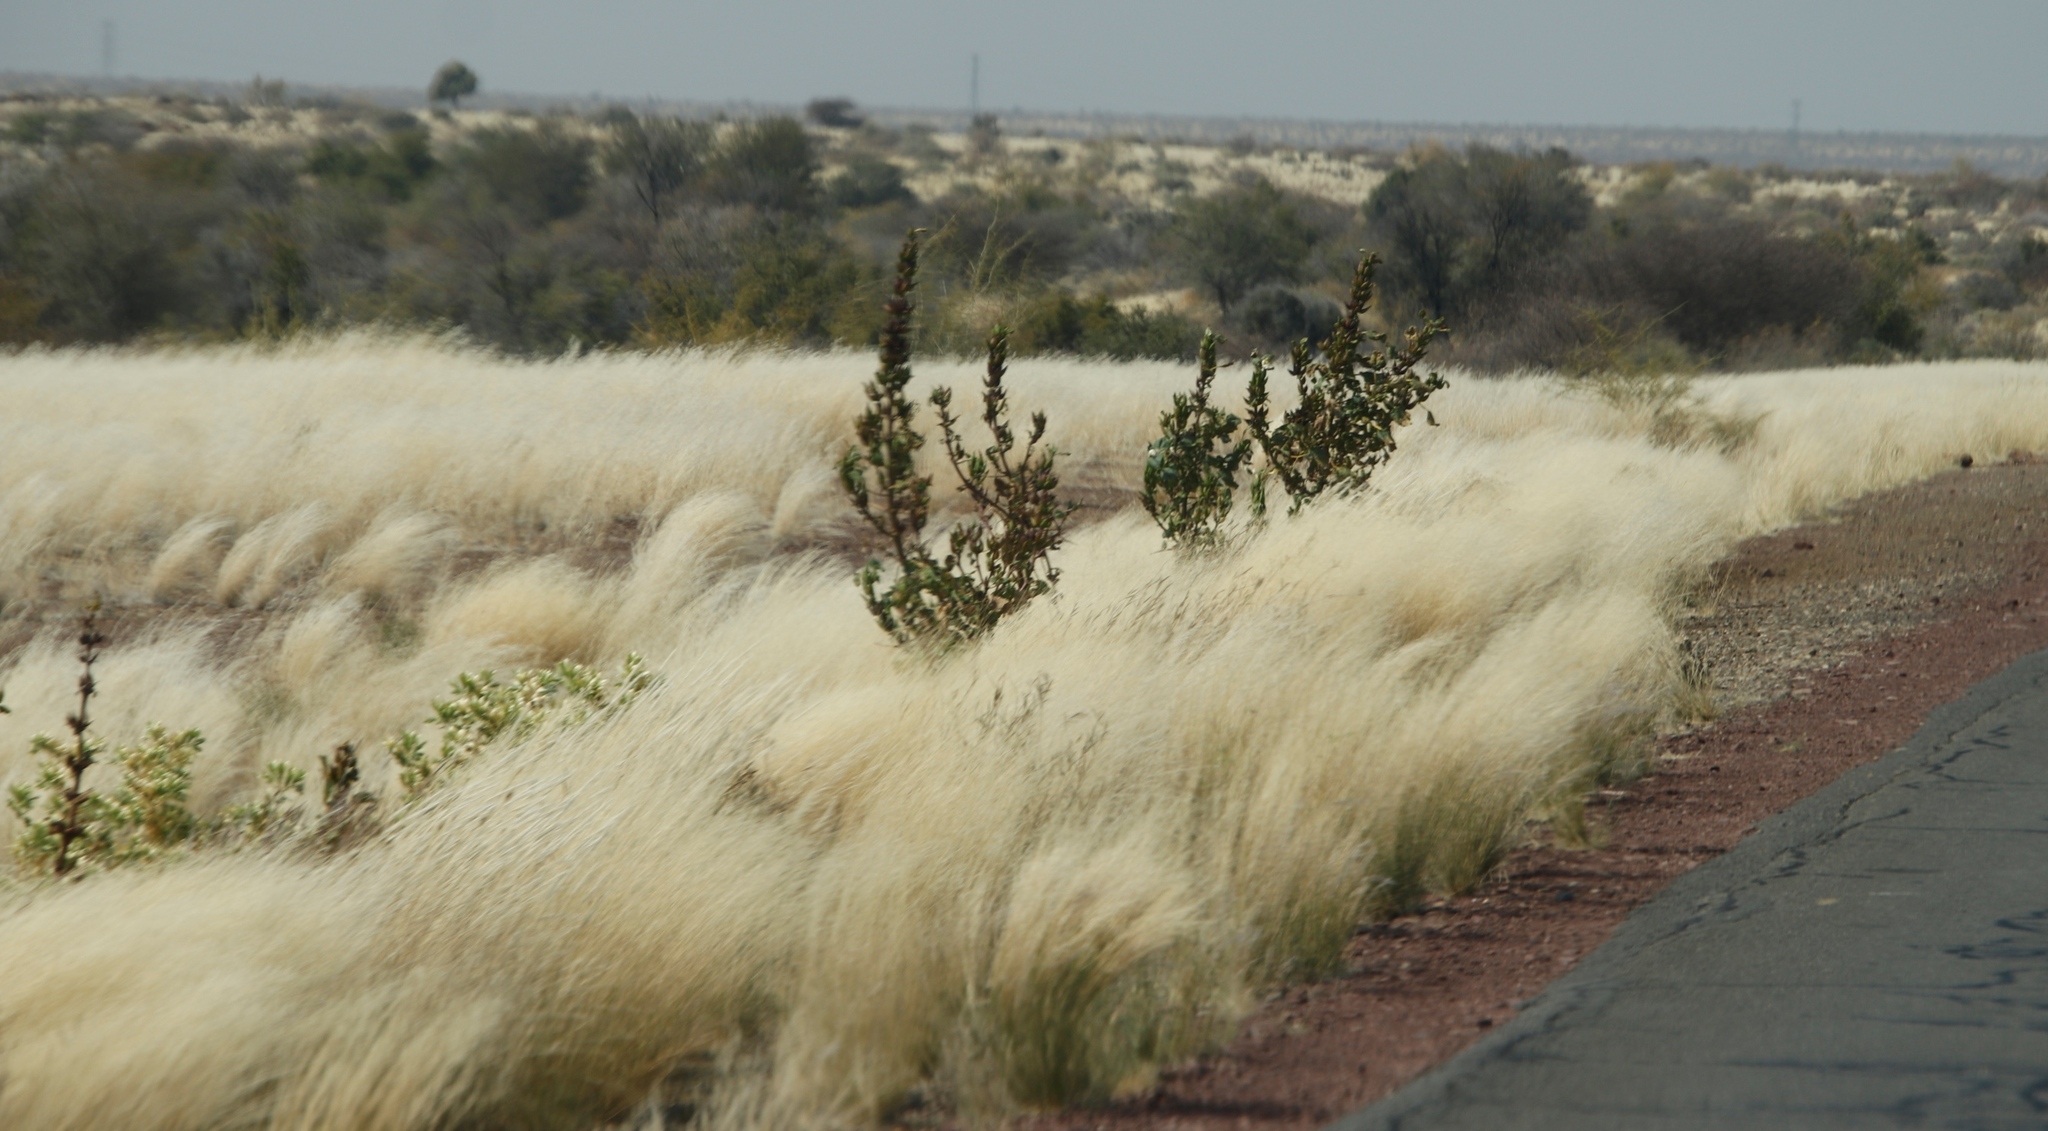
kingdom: Plantae
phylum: Tracheophyta
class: Magnoliopsida
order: Lamiales
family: Pedaliaceae
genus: Rogeria
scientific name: Rogeria longiflora
